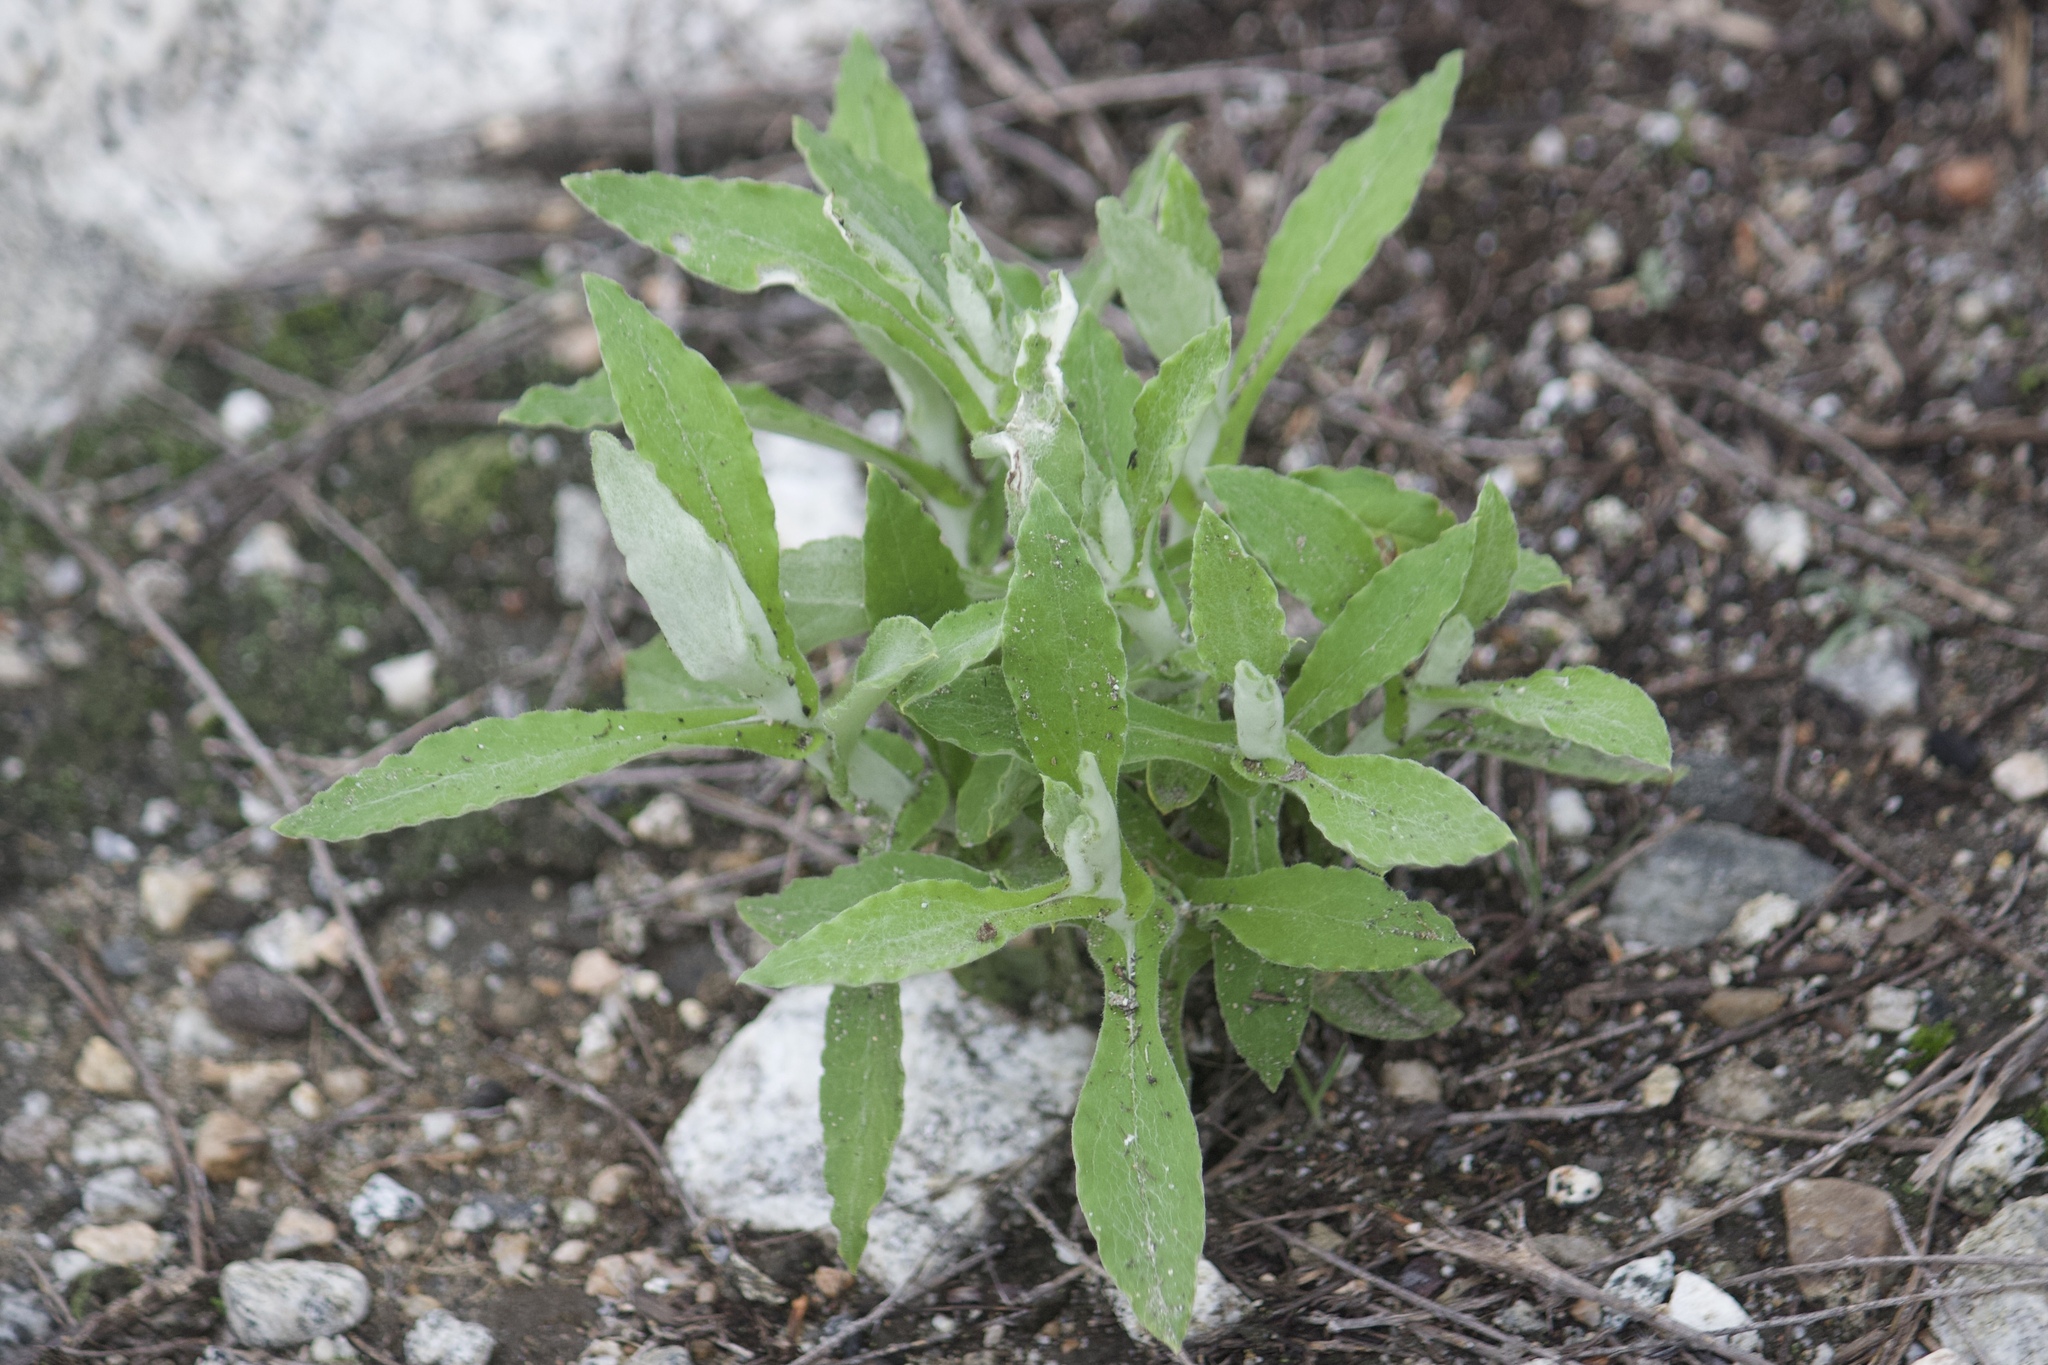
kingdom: Plantae
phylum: Tracheophyta
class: Magnoliopsida
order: Asterales
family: Asteraceae
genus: Pseudognaphalium
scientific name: Pseudognaphalium biolettii
